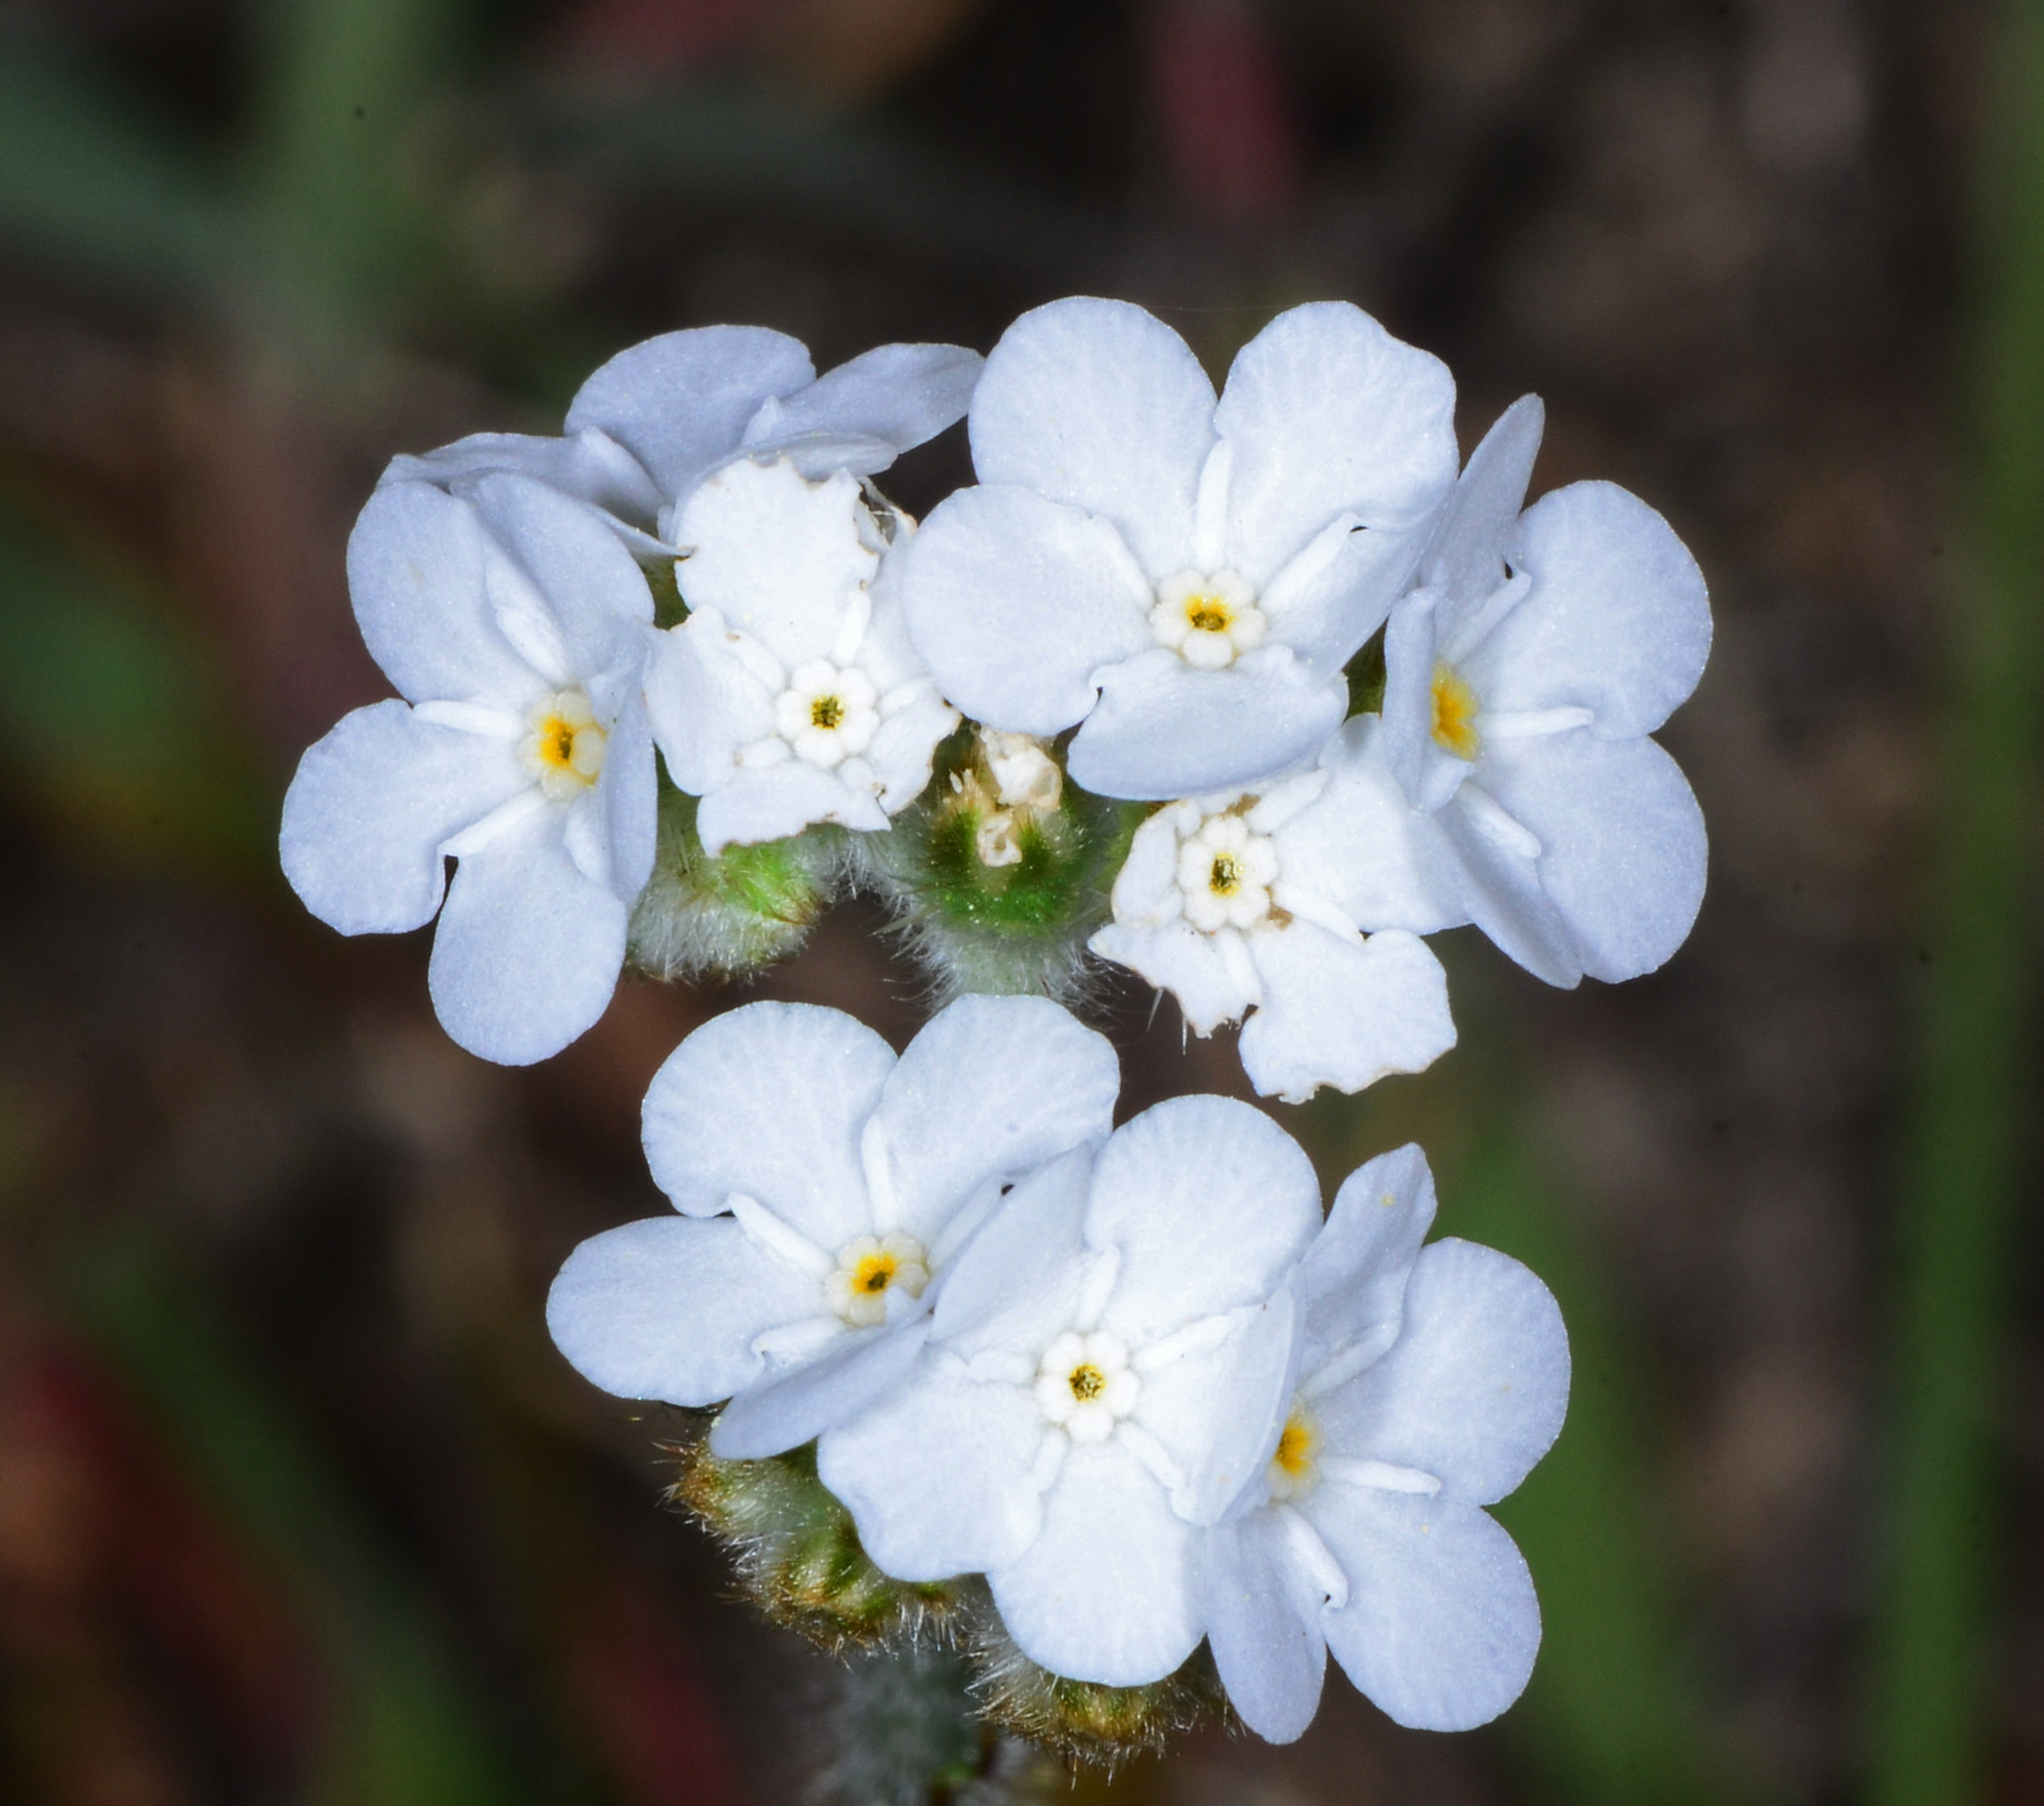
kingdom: Plantae
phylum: Tracheophyta
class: Magnoliopsida
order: Boraginales
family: Boraginaceae
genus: Plagiobothrys
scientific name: Plagiobothrys nothofulvus
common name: Popcorn-flower
